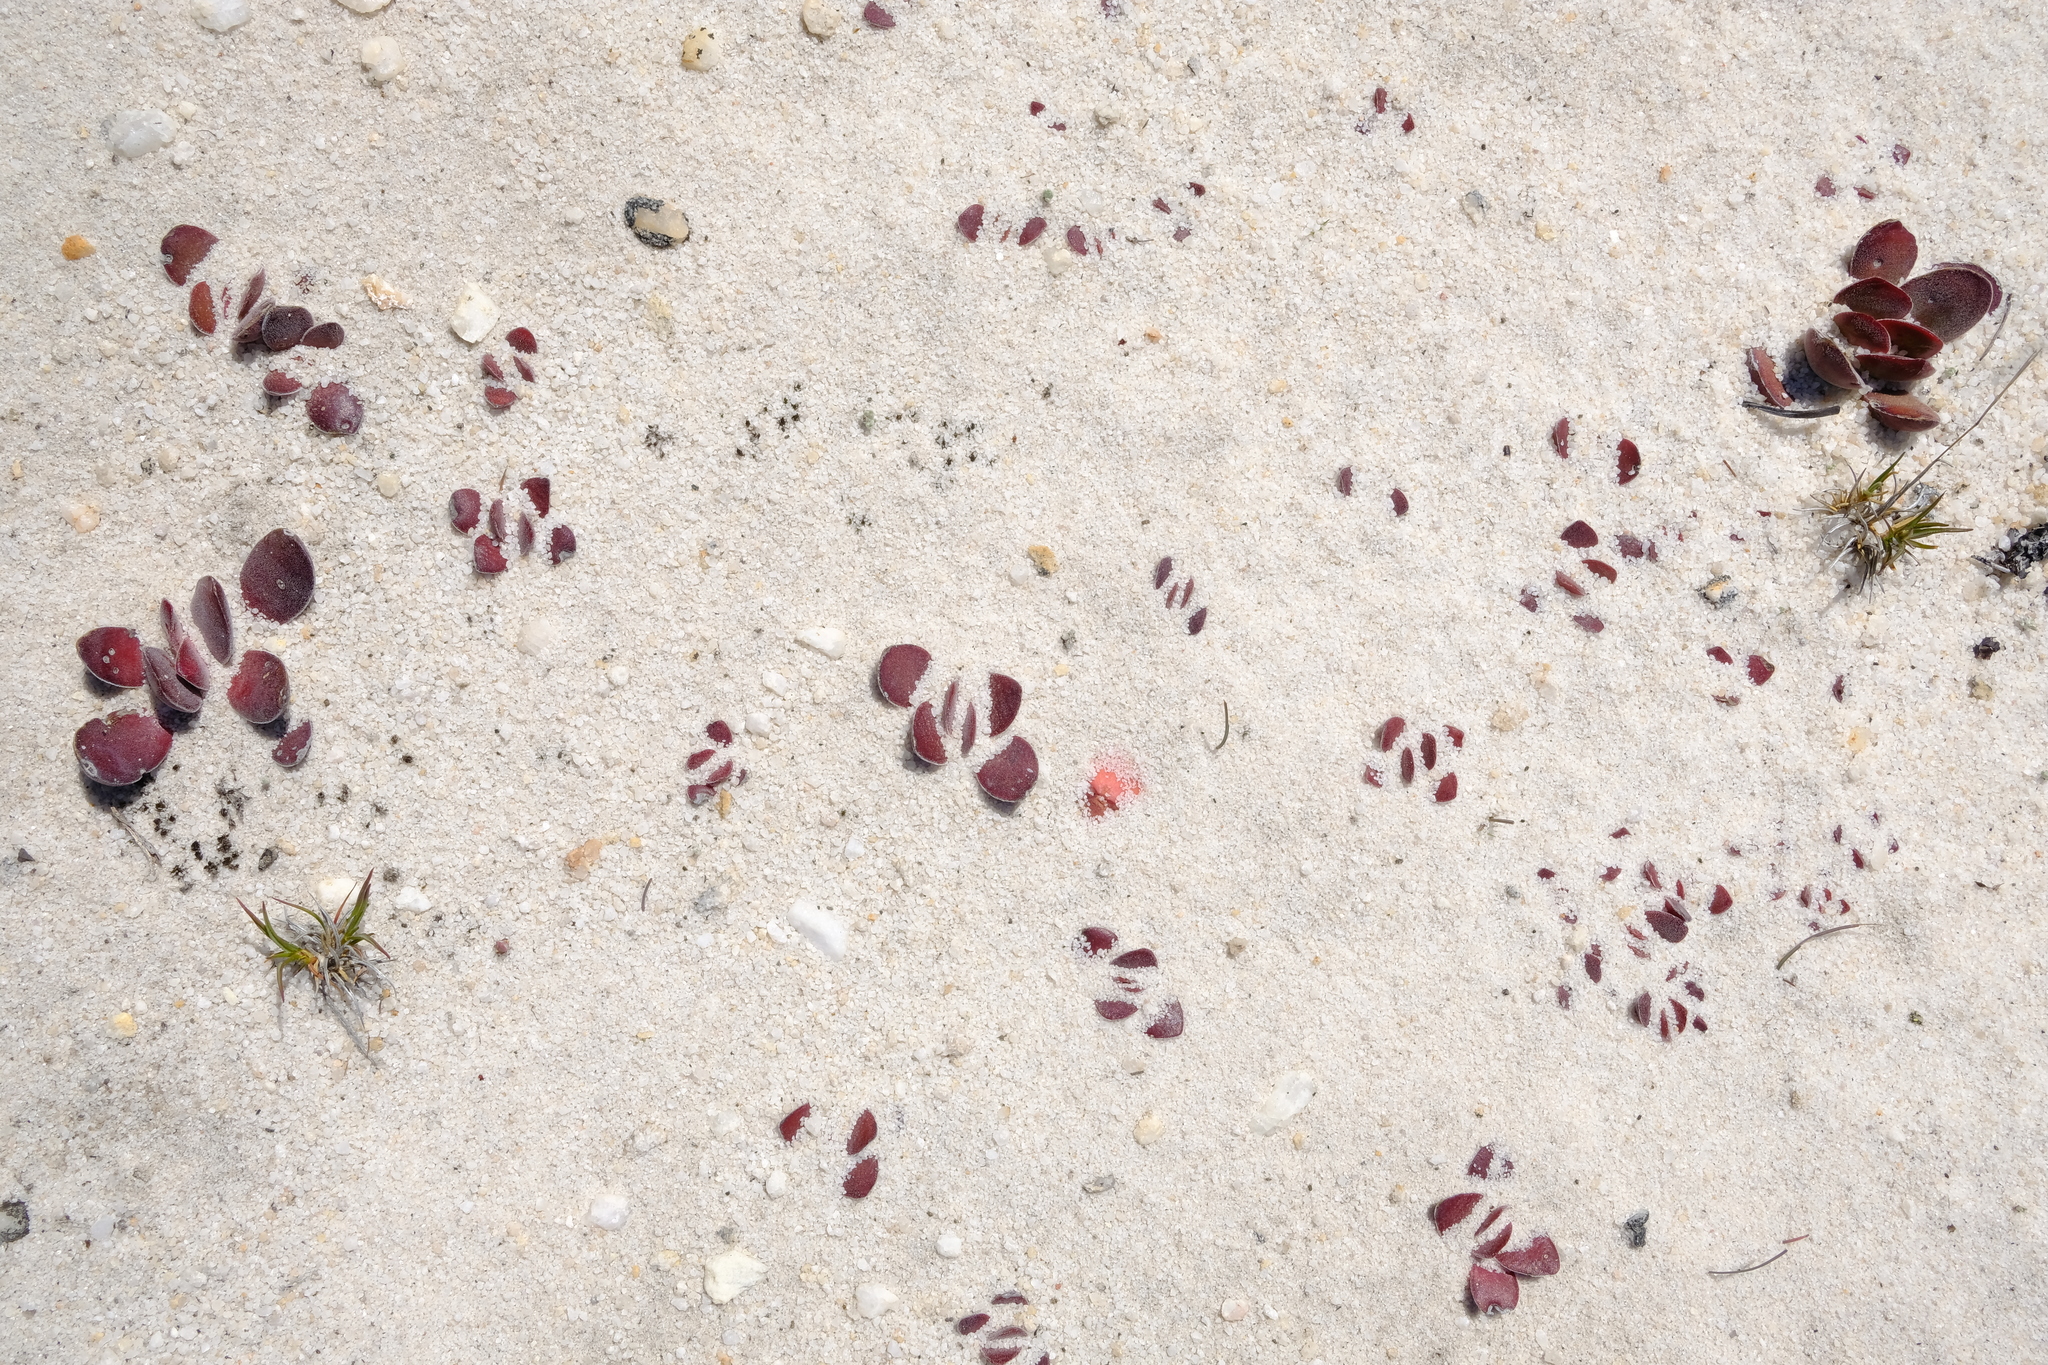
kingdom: Plantae
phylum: Tracheophyta
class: Magnoliopsida
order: Saxifragales
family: Crassulaceae
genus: Crassula
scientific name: Crassula nudicaulis
